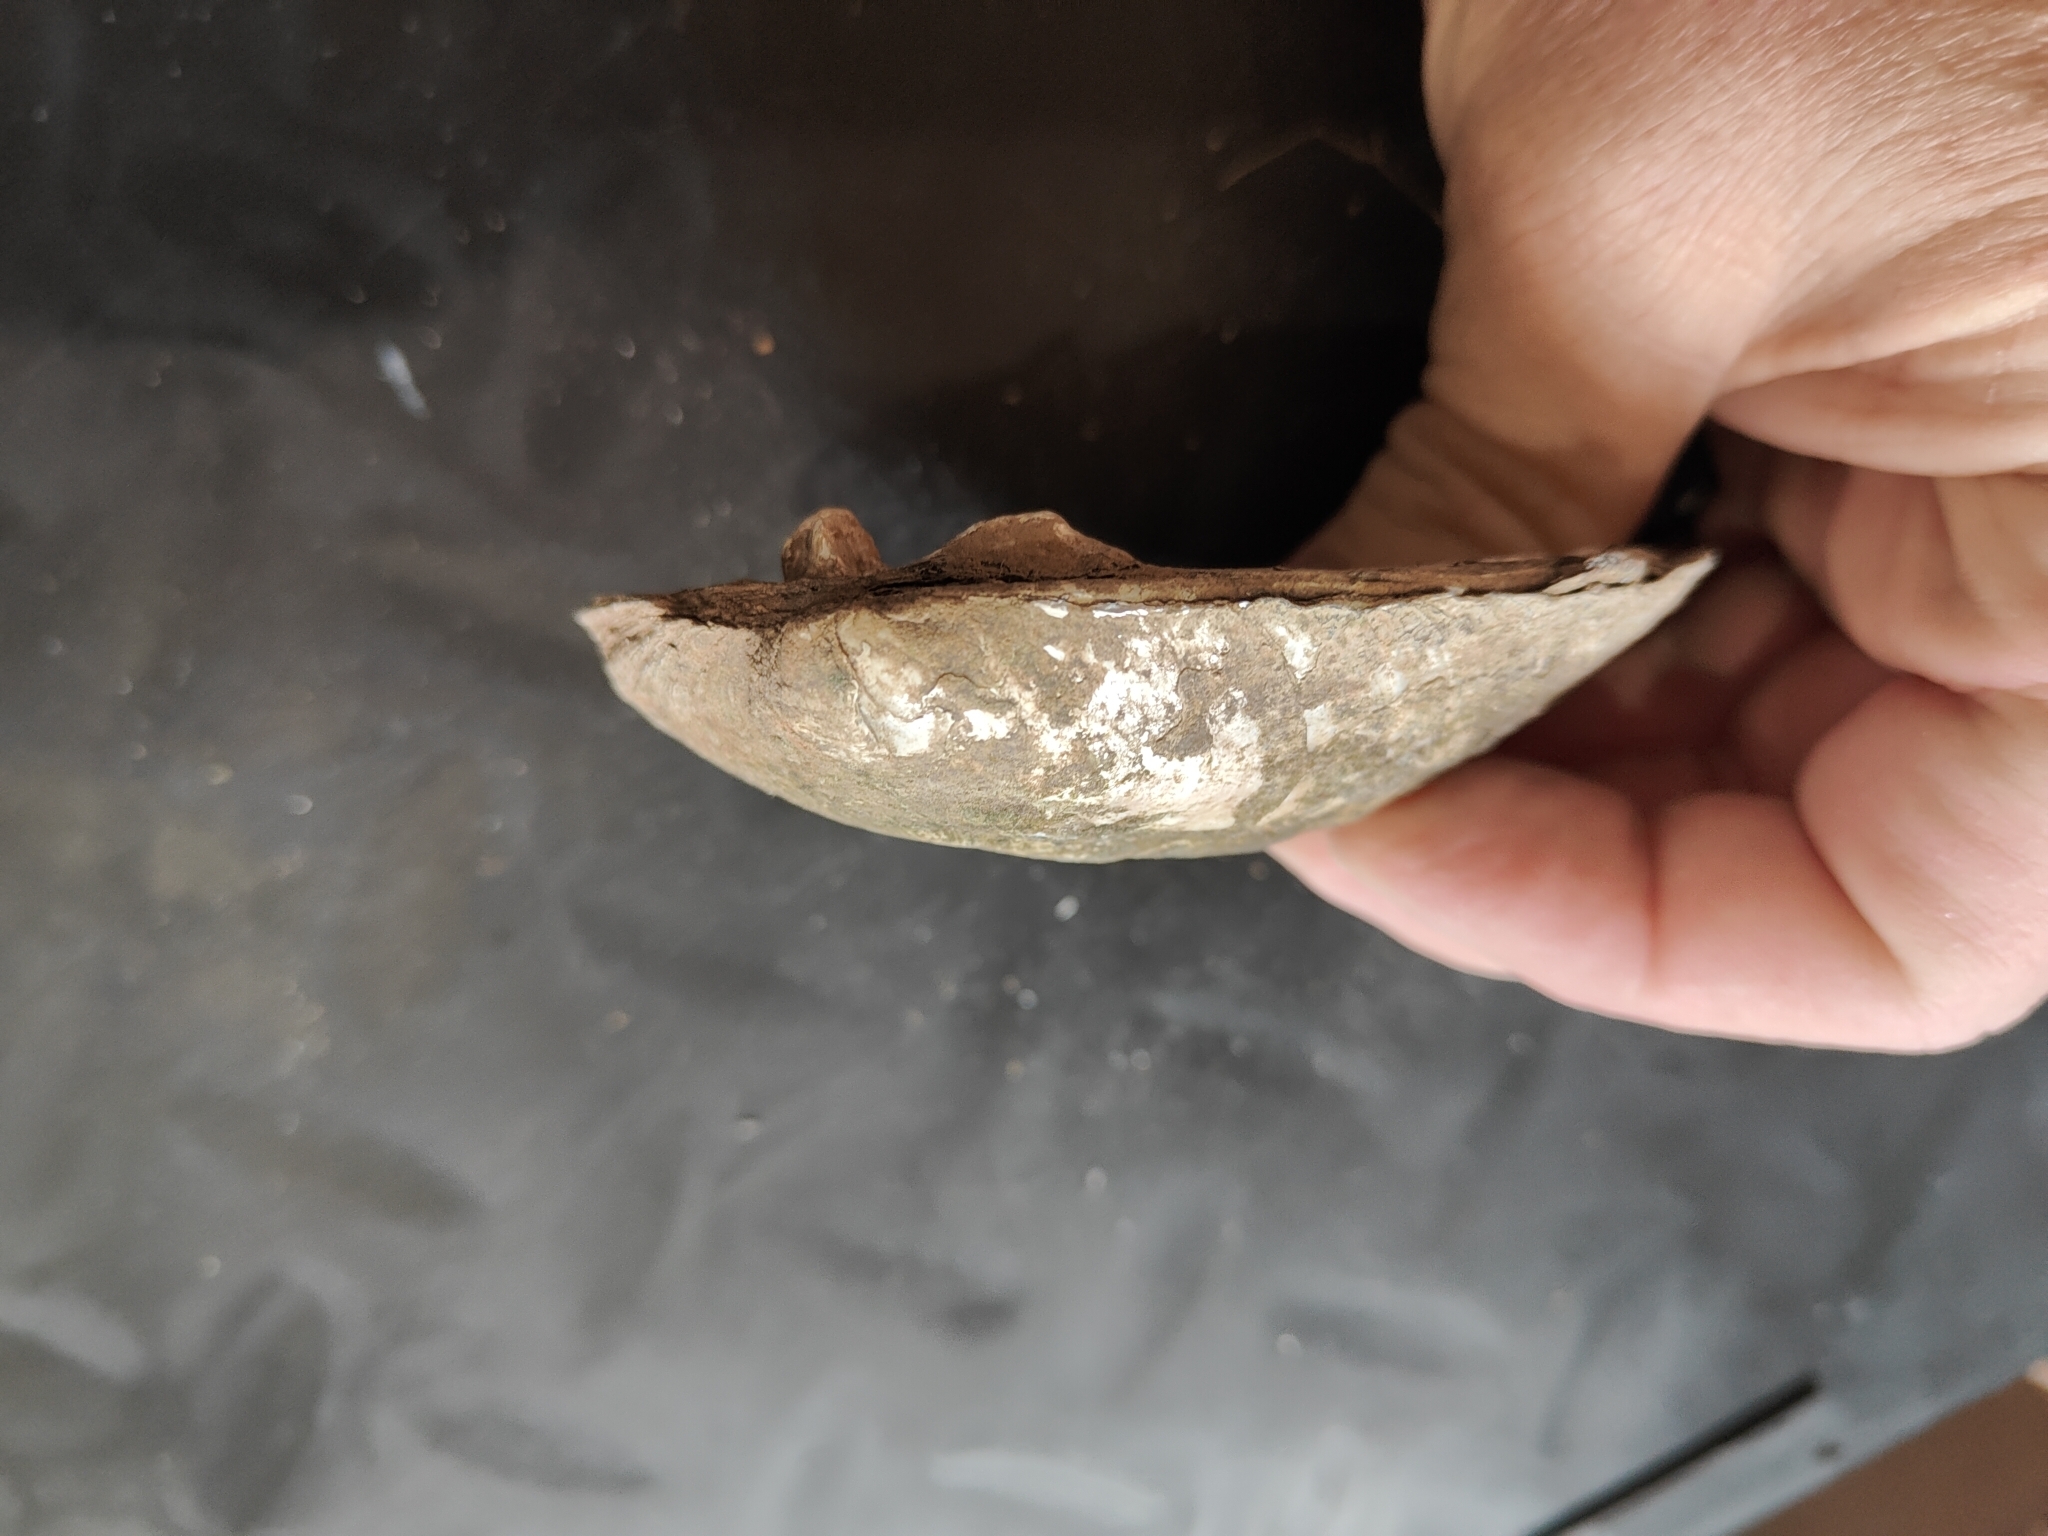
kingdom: Animalia
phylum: Mollusca
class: Bivalvia
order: Unionida
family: Unionidae
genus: Amblema
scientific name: Amblema plicata
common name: Threeridge
